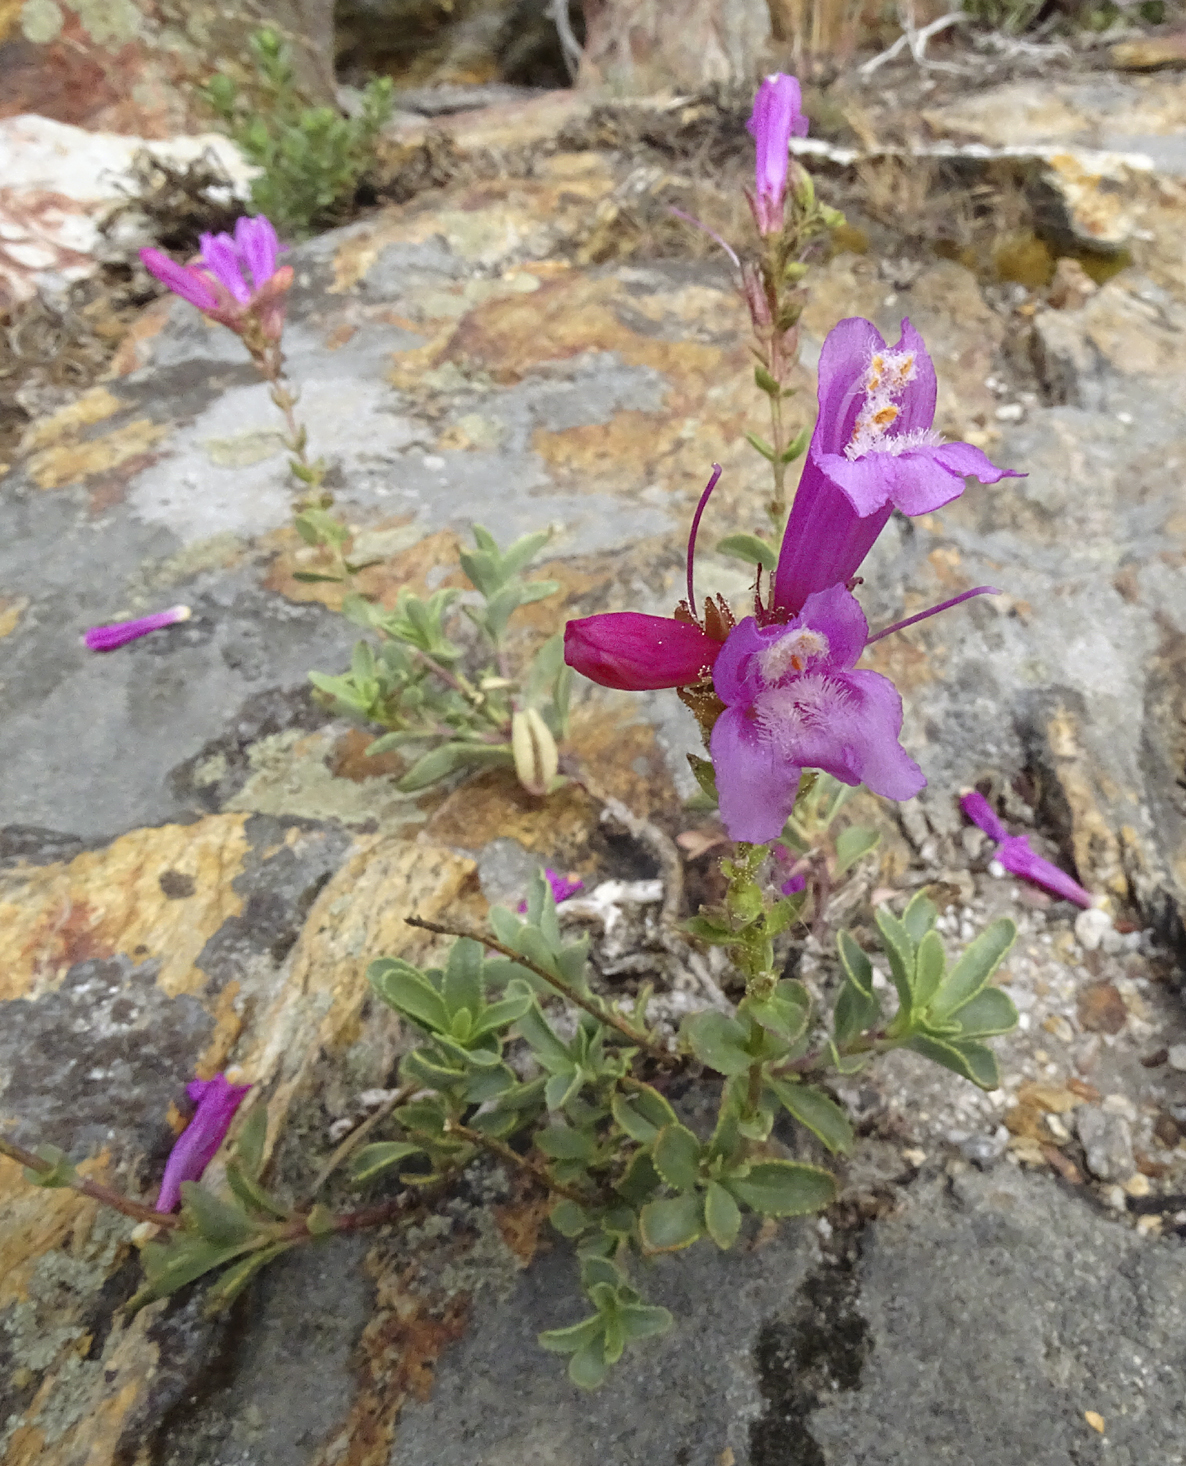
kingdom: Plantae
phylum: Tracheophyta
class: Magnoliopsida
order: Lamiales
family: Plantaginaceae
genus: Penstemon
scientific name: Penstemon newberryi
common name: Mountain-pride
